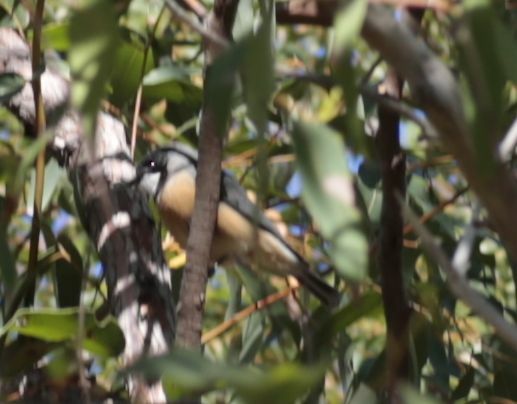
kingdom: Animalia
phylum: Chordata
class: Aves
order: Passeriformes
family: Pachycephalidae
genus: Pachycephala
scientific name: Pachycephala rufiventris
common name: Rufous whistler
